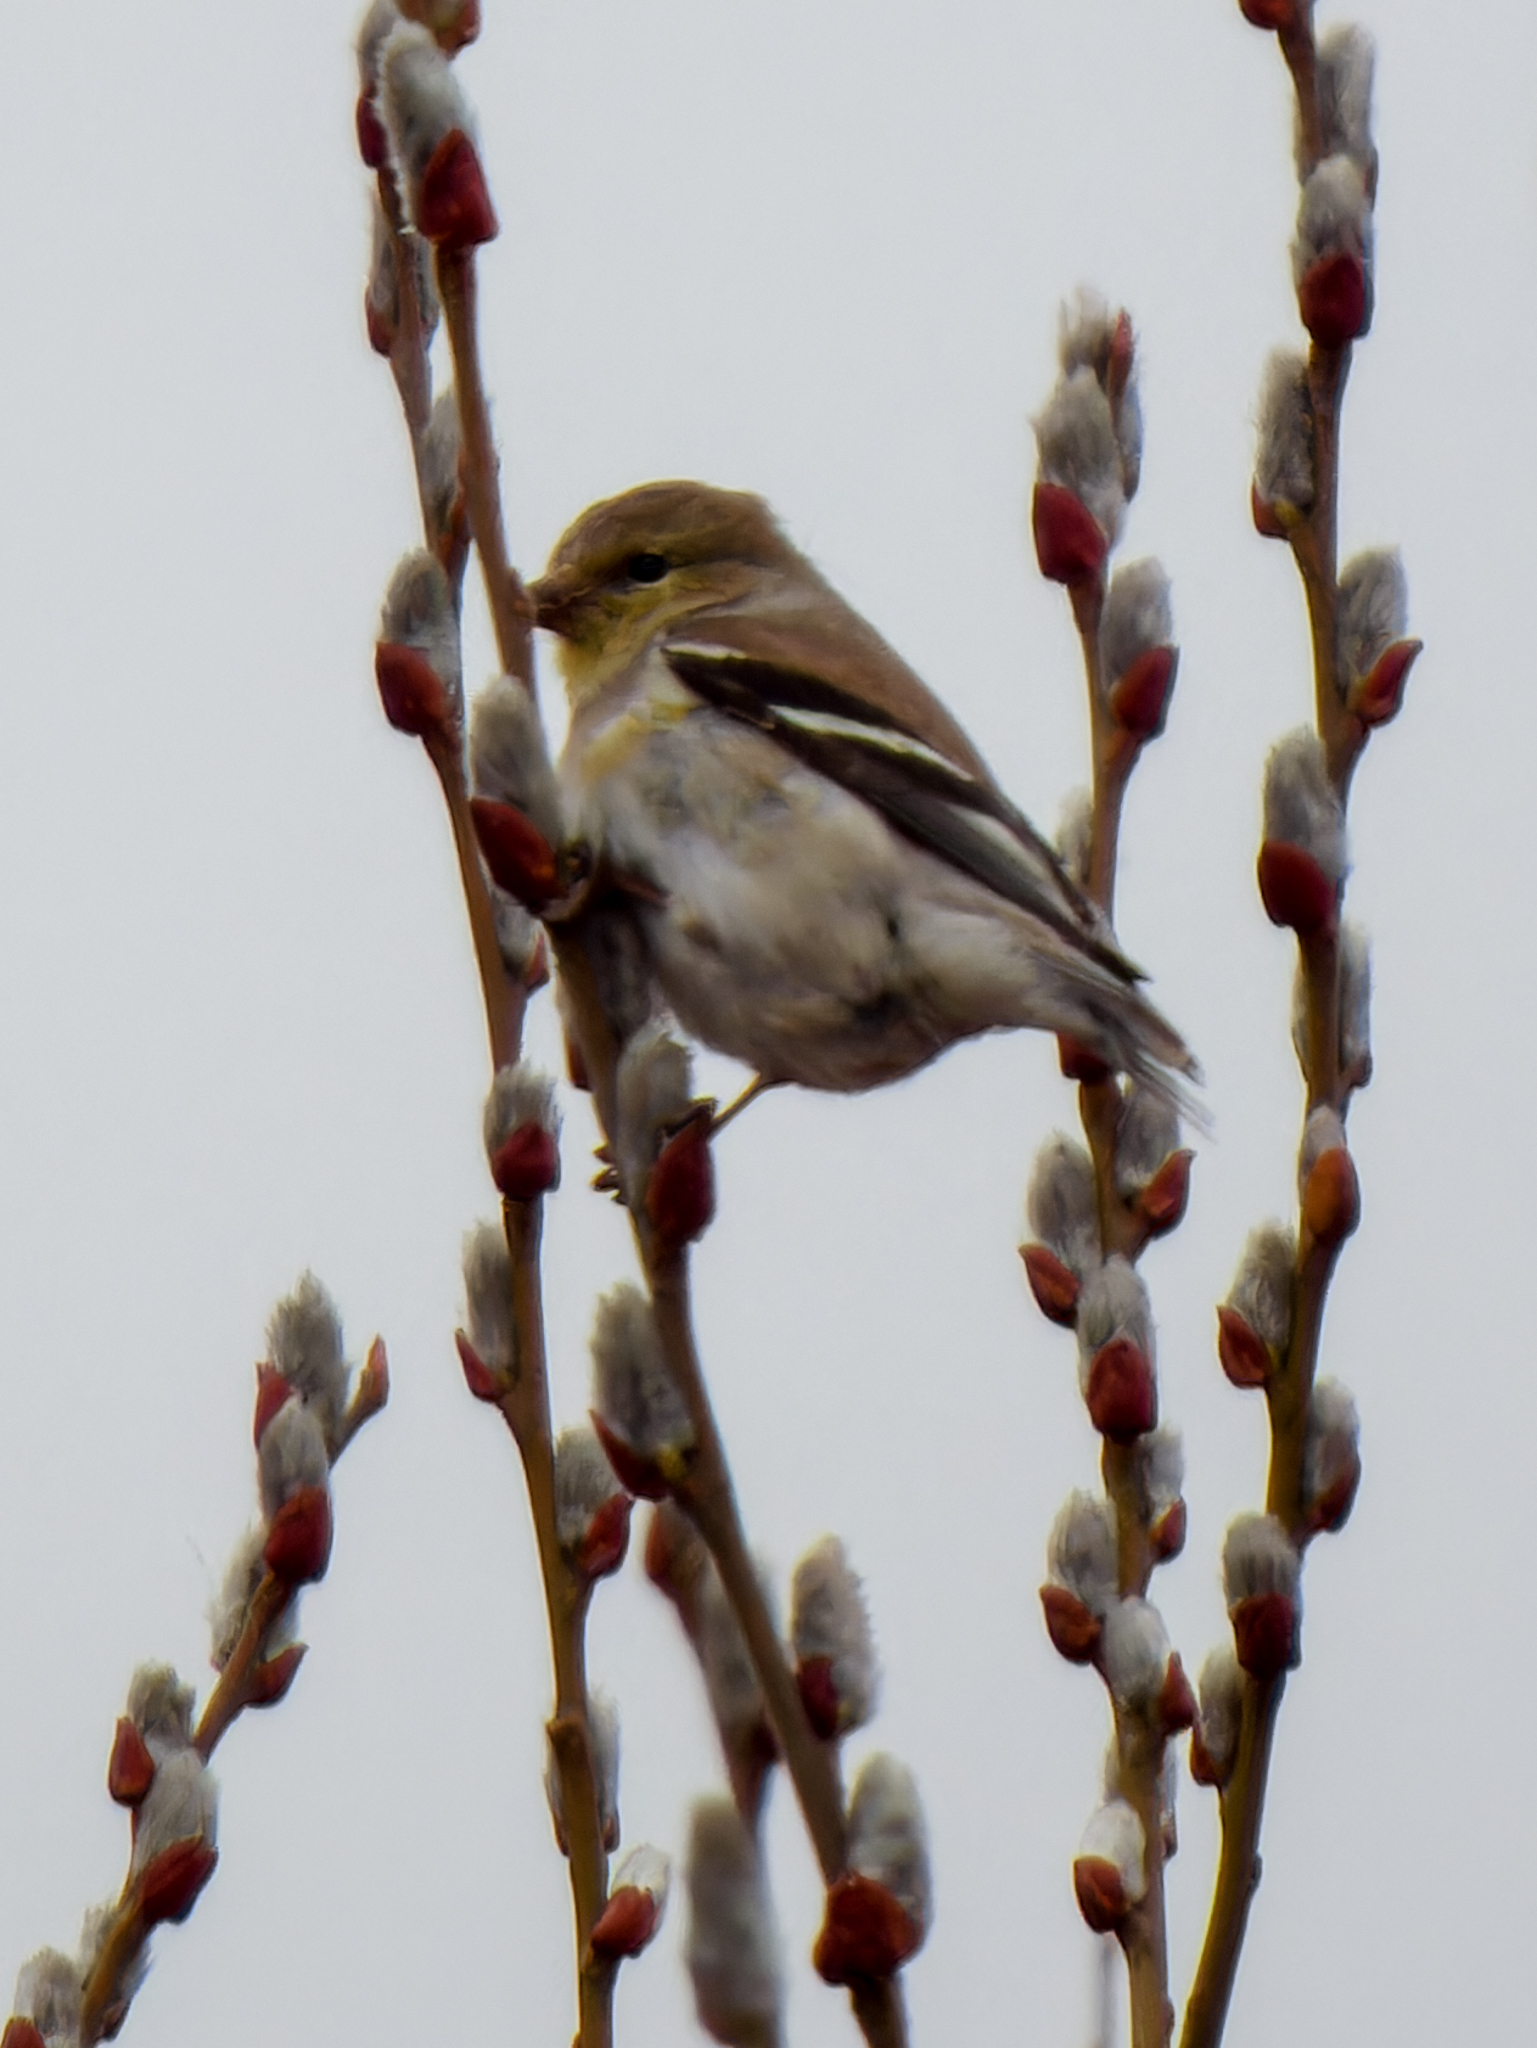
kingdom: Animalia
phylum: Chordata
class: Aves
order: Passeriformes
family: Fringillidae
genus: Spinus
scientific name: Spinus tristis
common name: American goldfinch
